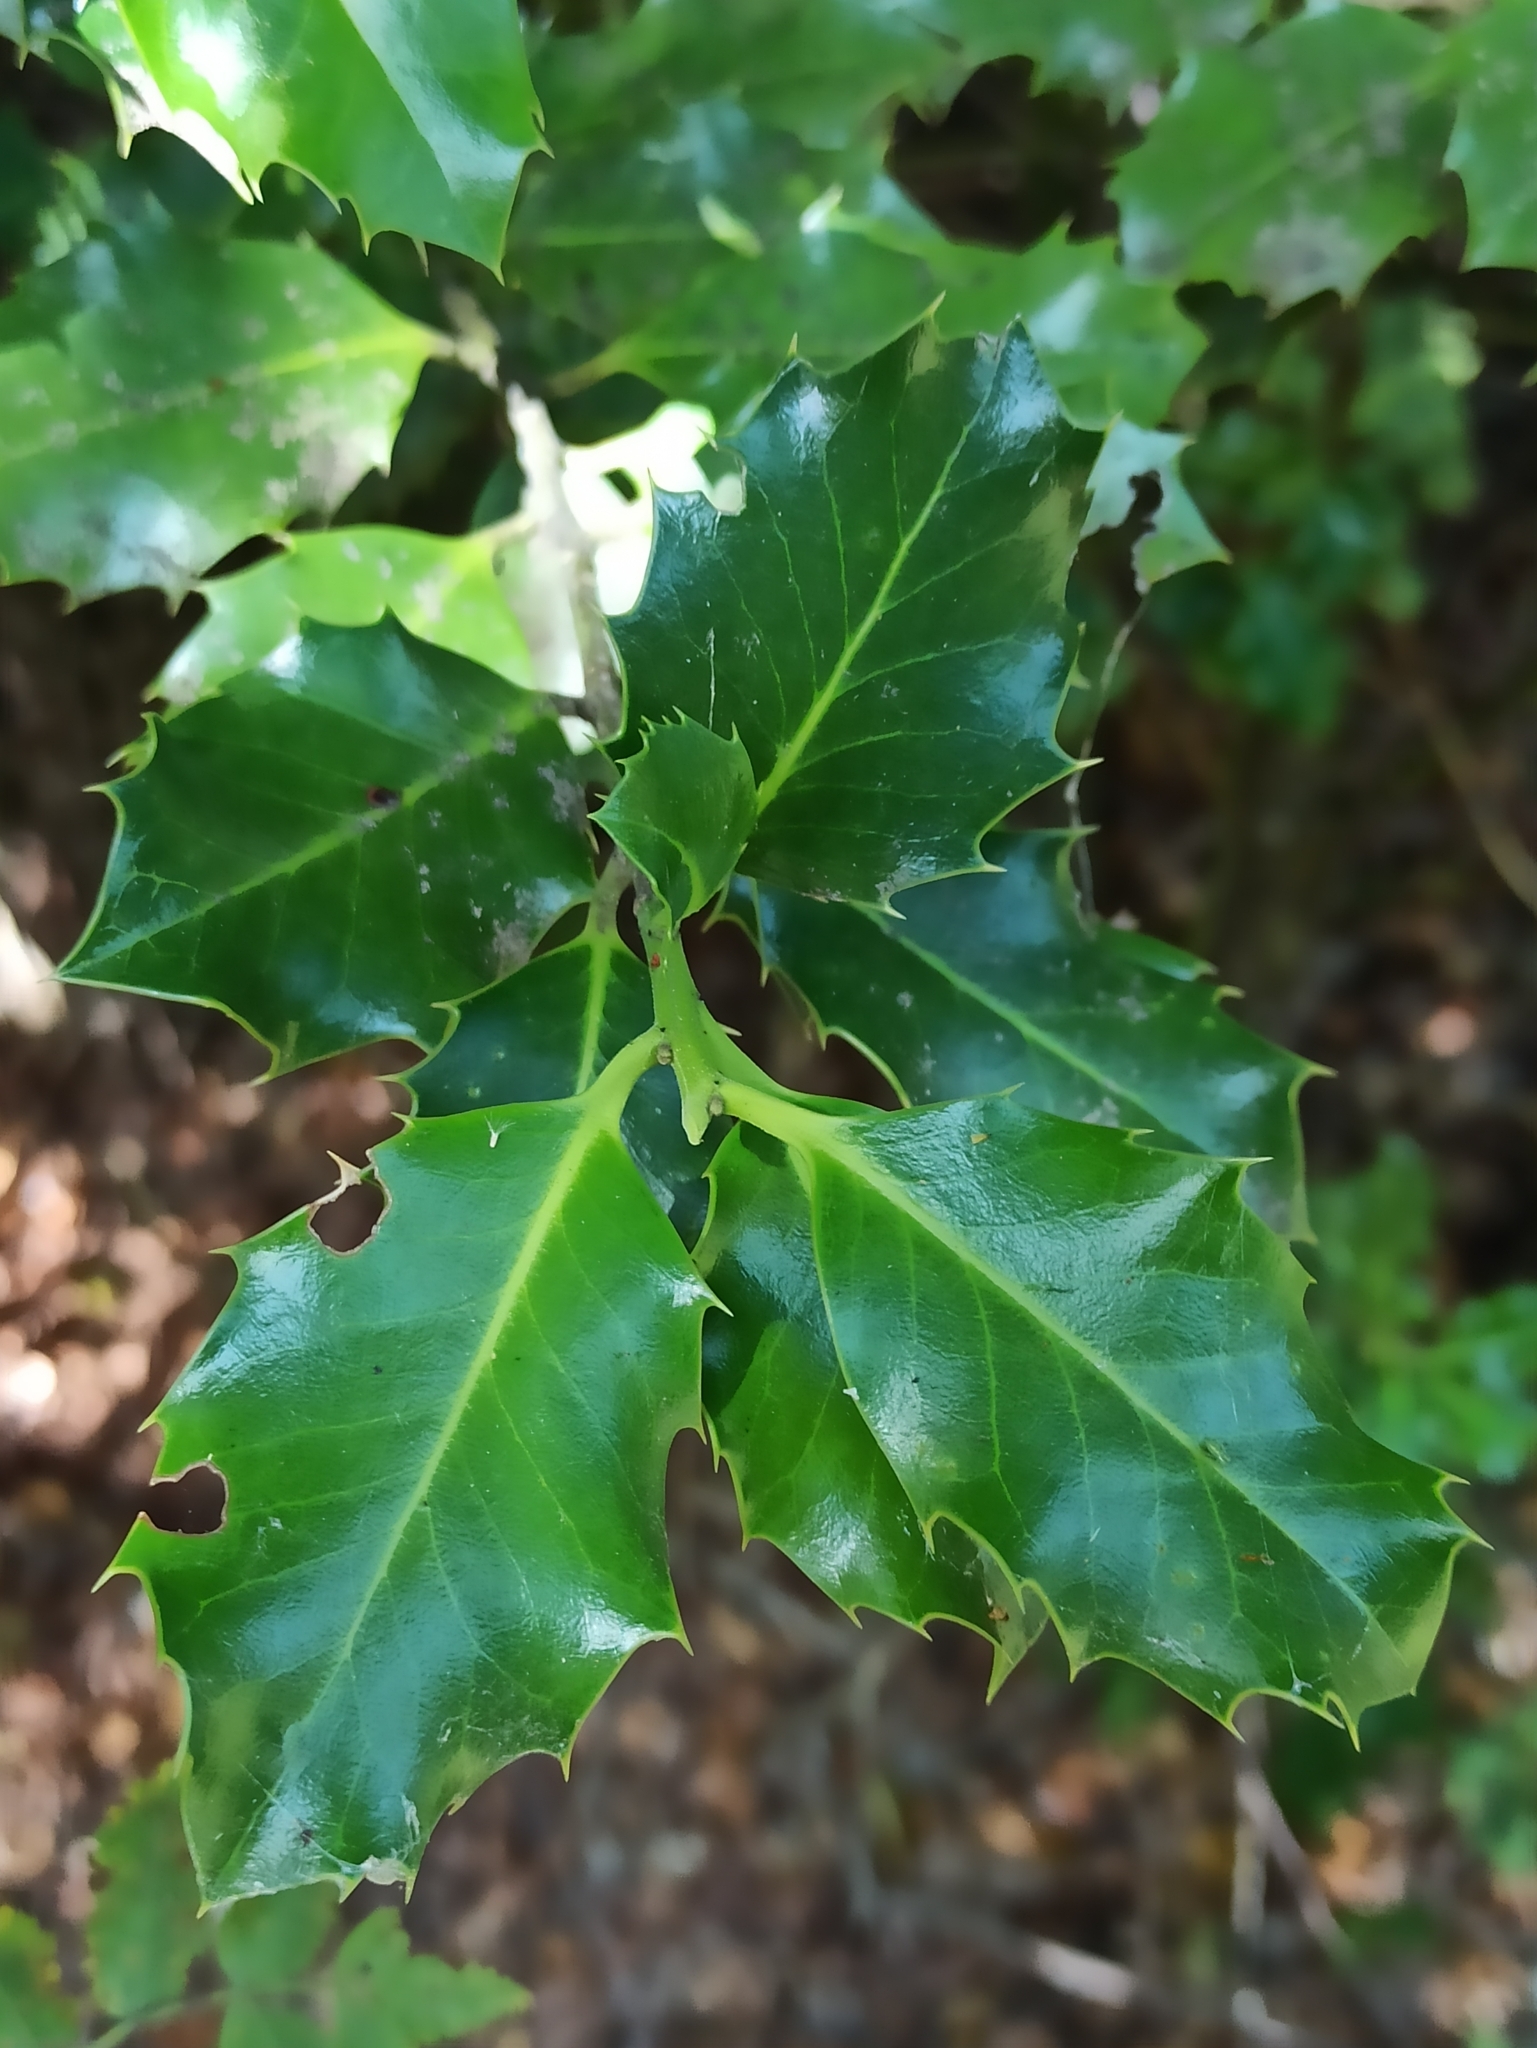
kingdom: Plantae
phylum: Tracheophyta
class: Magnoliopsida
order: Aquifoliales
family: Aquifoliaceae
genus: Ilex
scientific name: Ilex aquifolium
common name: English holly
